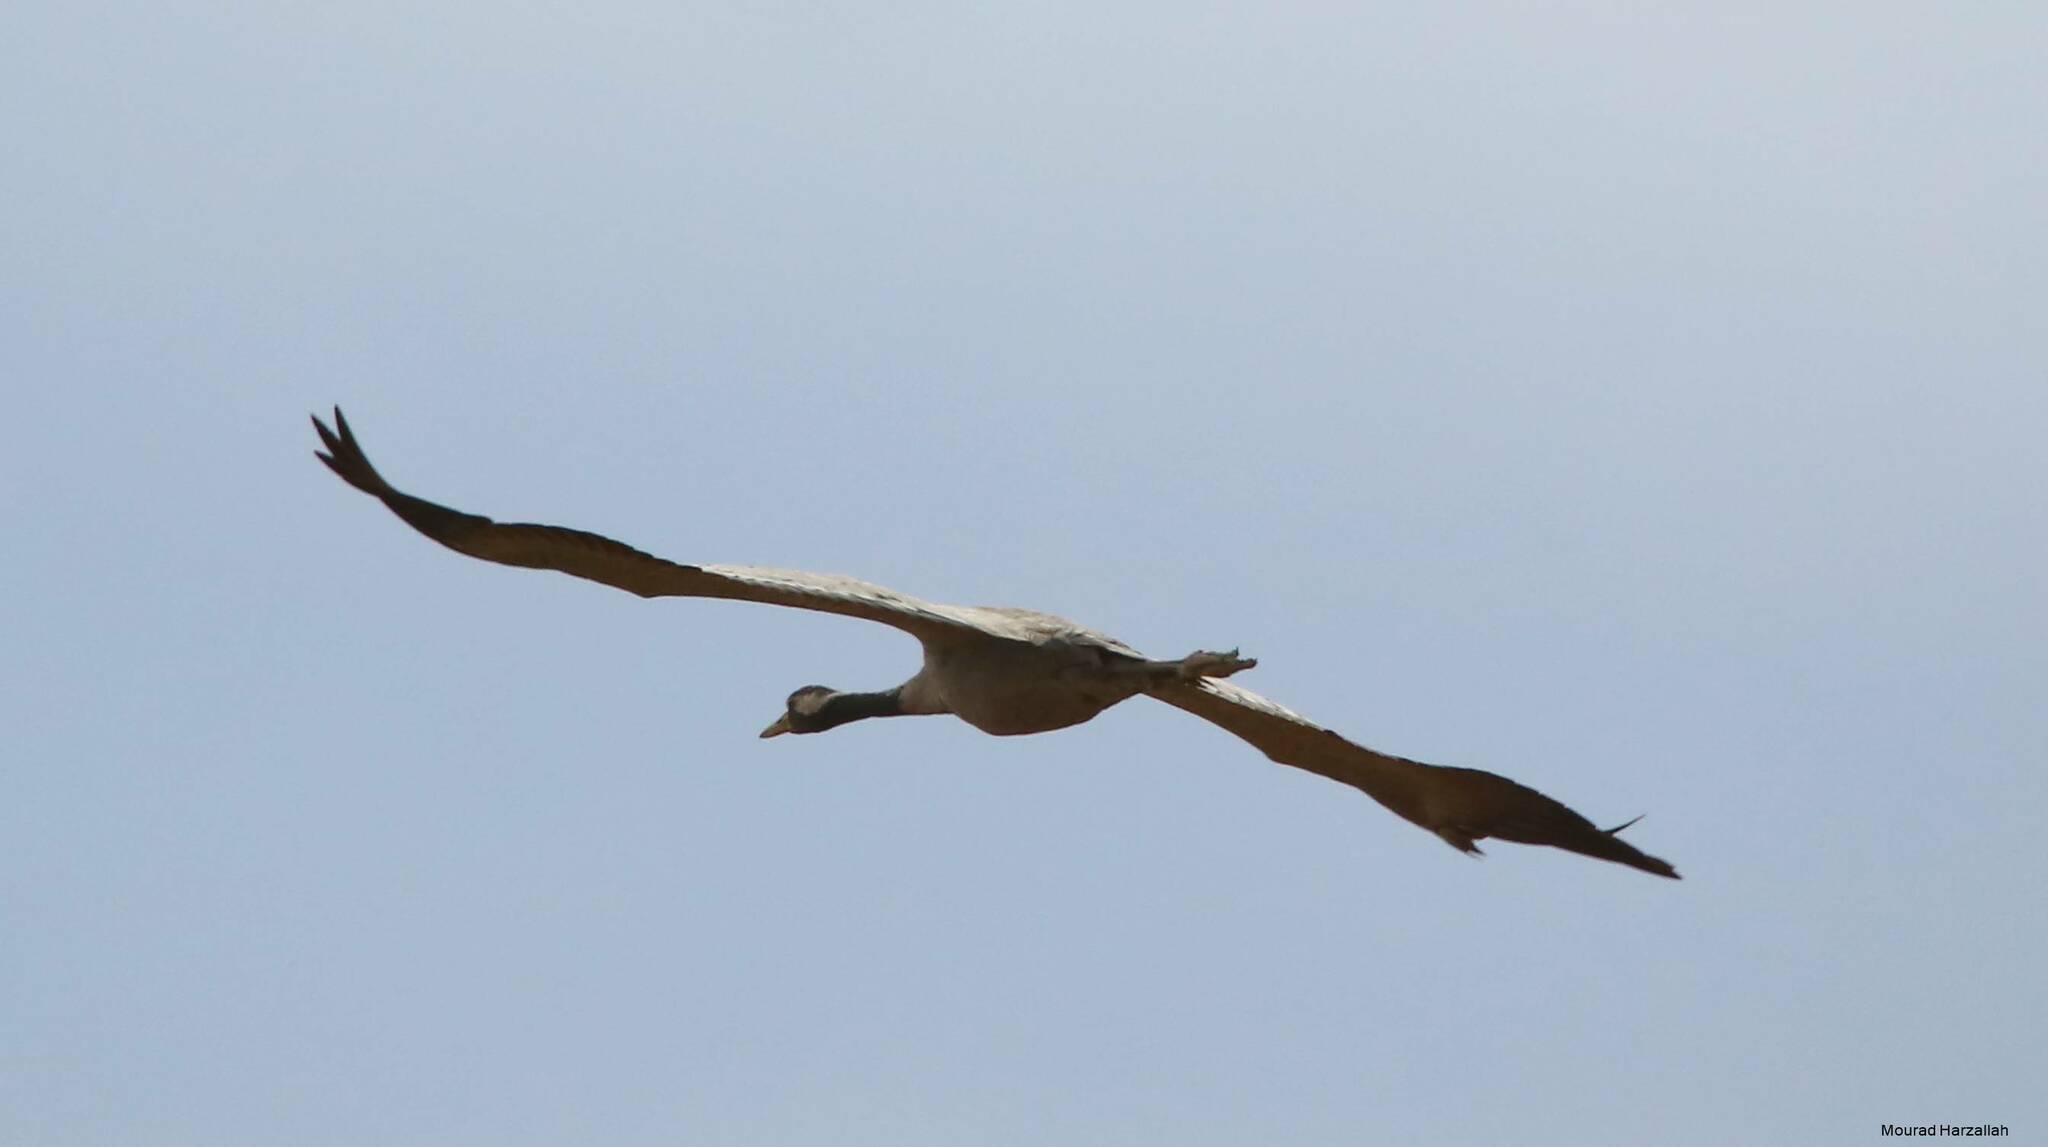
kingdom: Animalia
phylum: Chordata
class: Aves
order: Gruiformes
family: Gruidae
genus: Grus
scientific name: Grus grus
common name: Common crane
